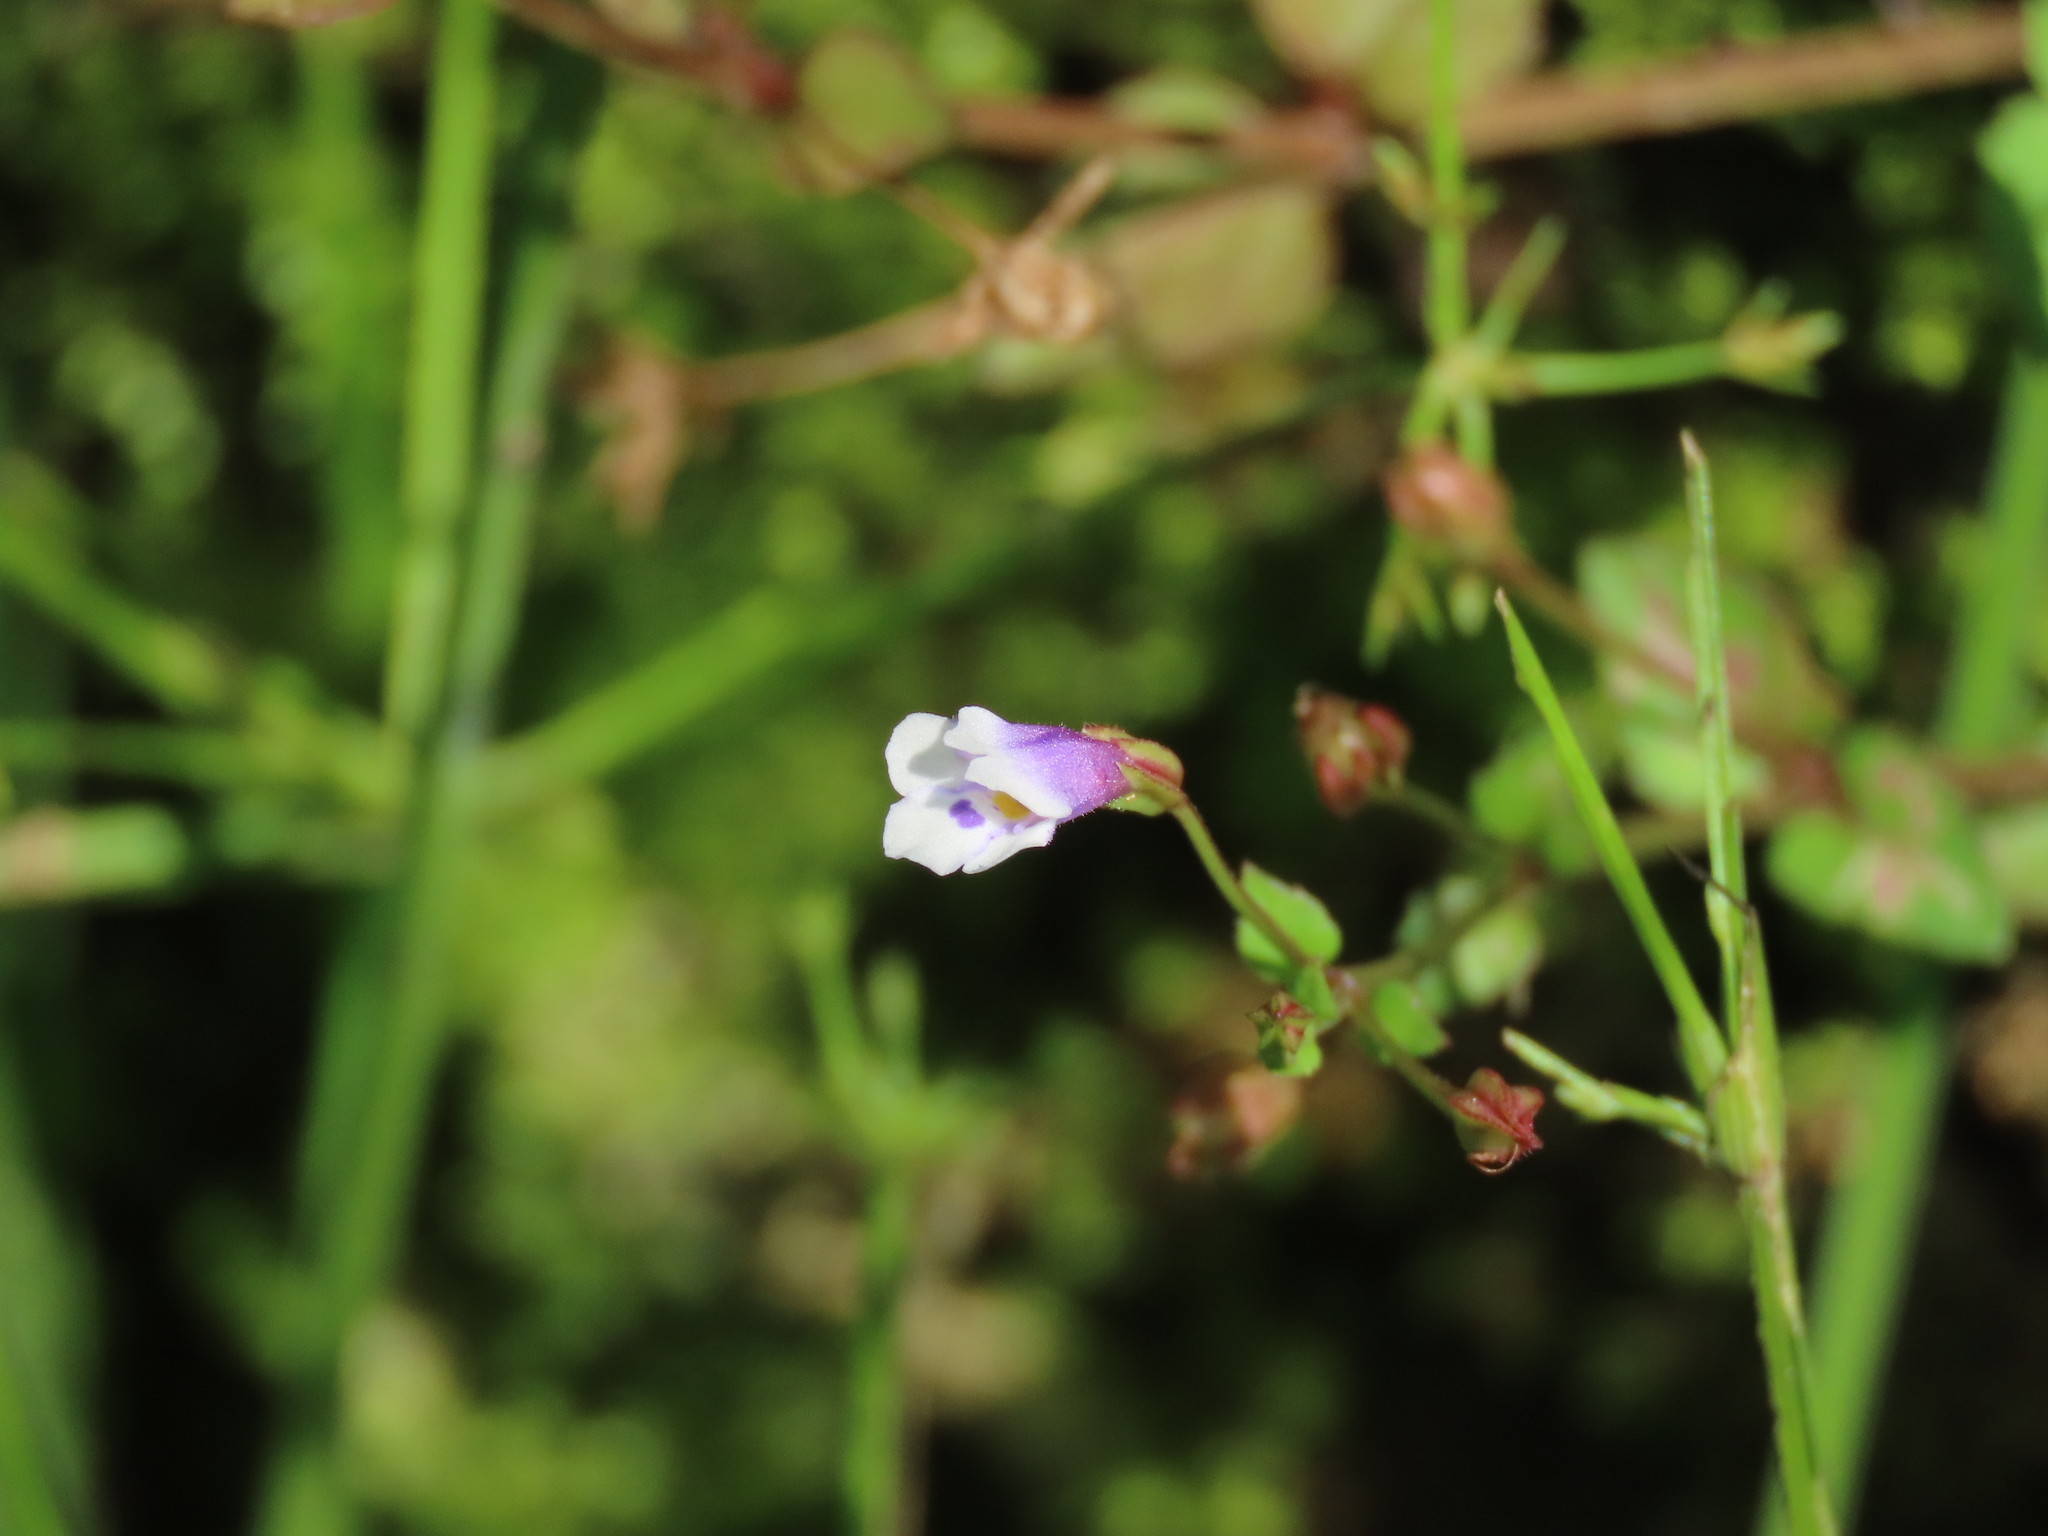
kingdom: Plantae
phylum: Tracheophyta
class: Magnoliopsida
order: Lamiales
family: Linderniaceae
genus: Torenia
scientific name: Torenia crustacea
